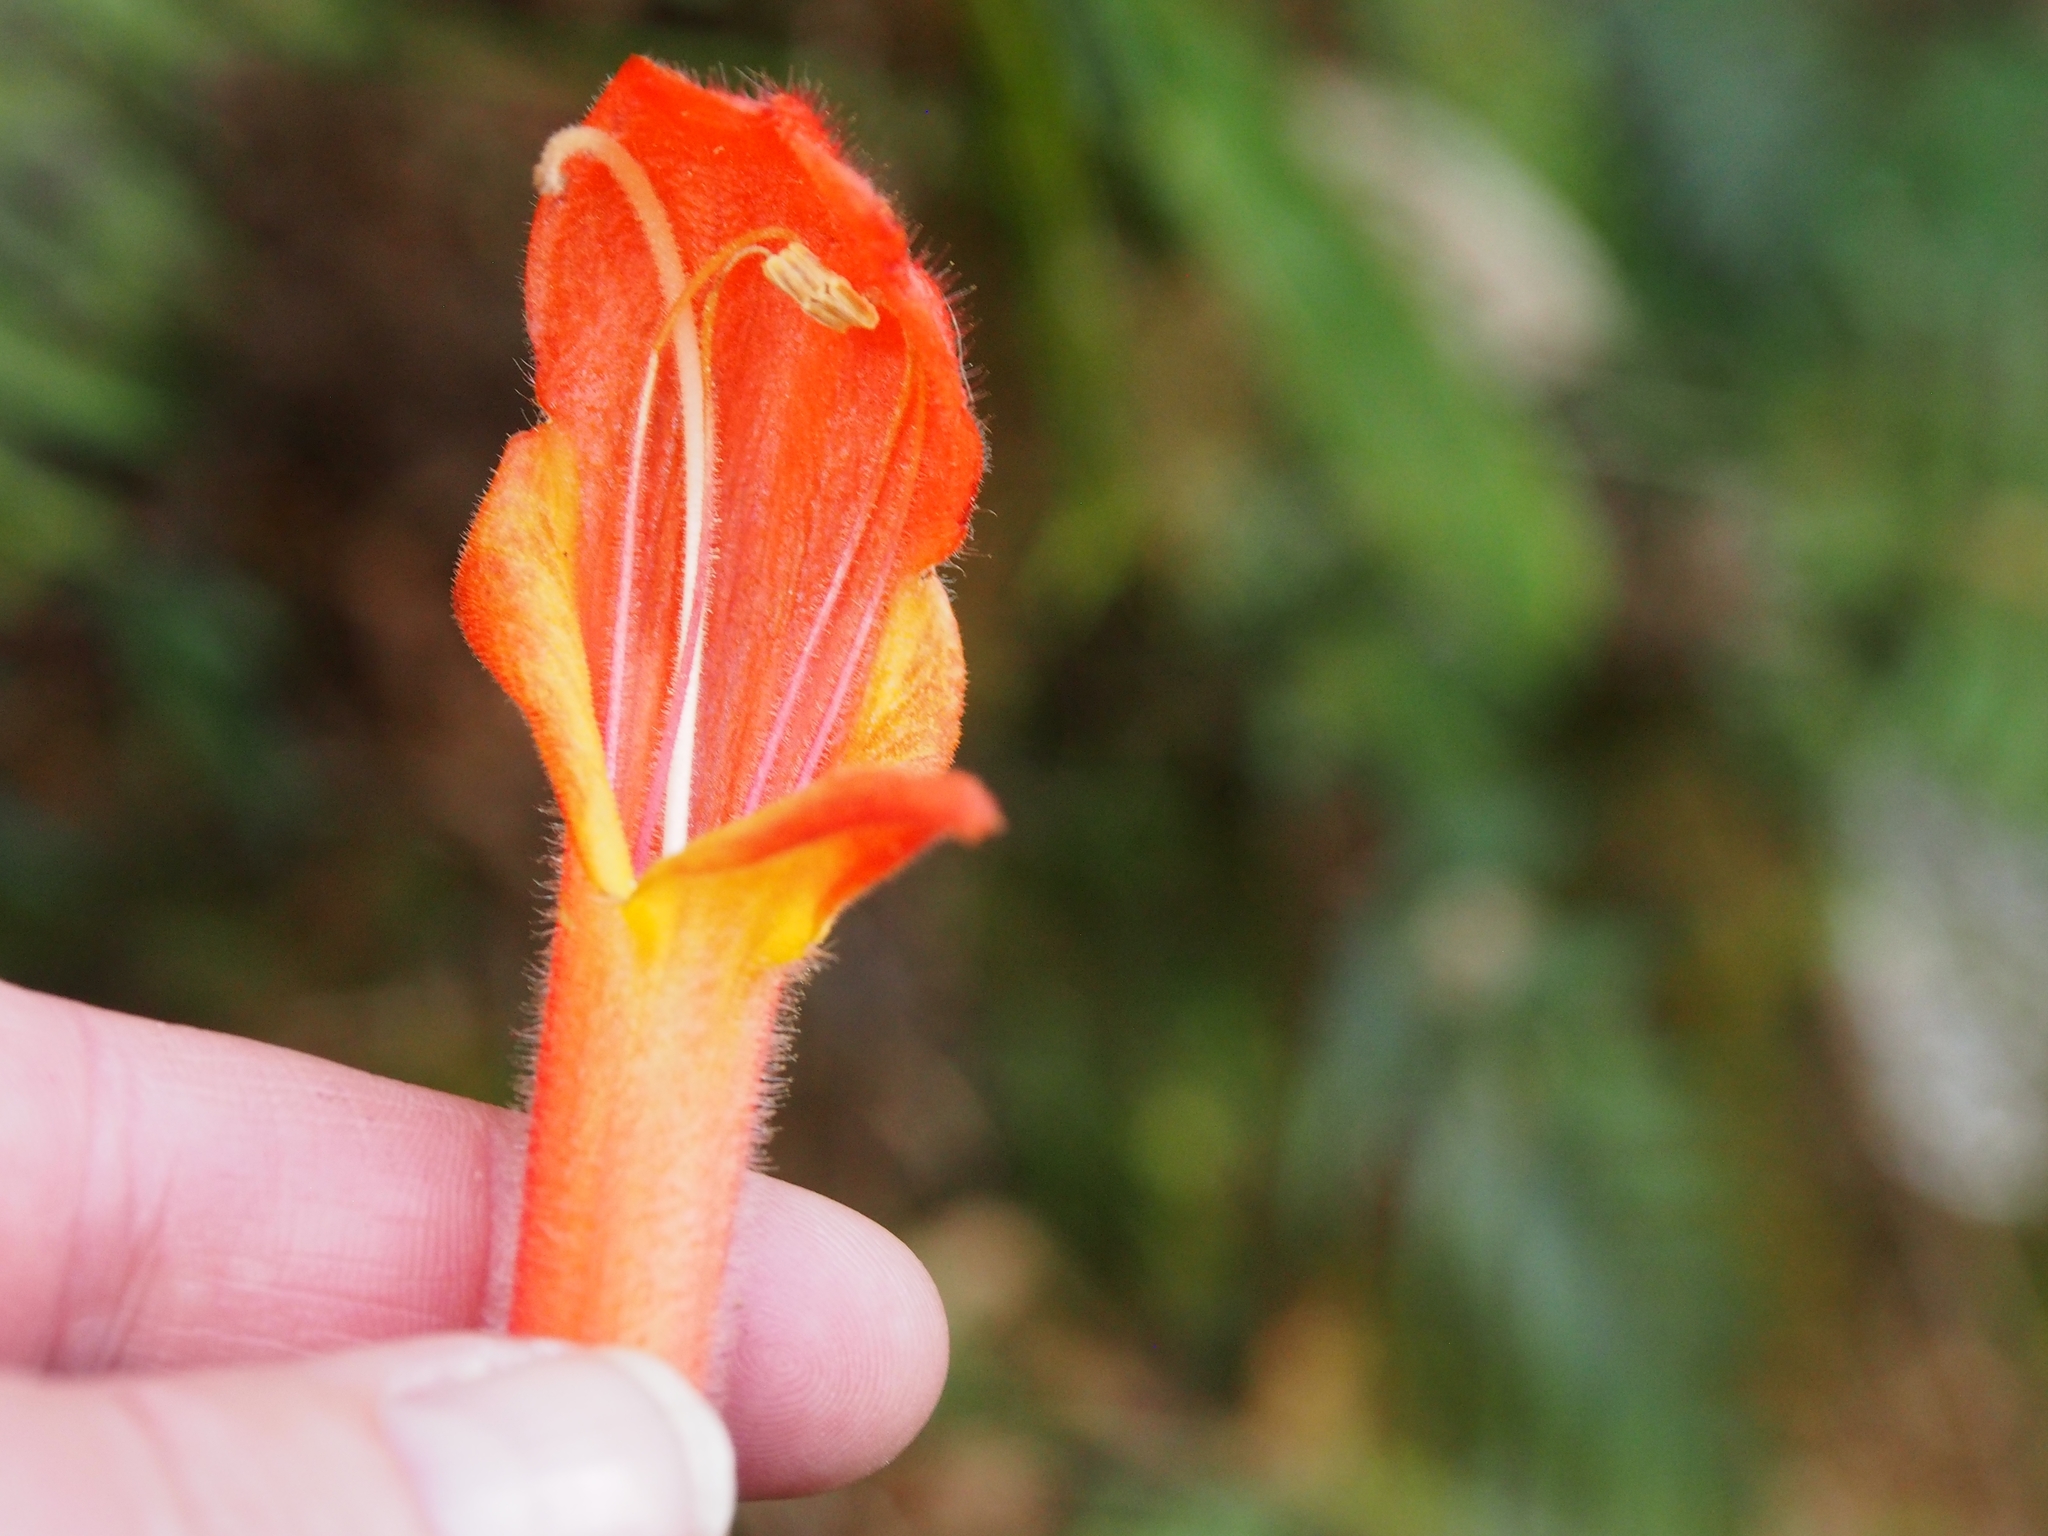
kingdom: Plantae
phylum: Tracheophyta
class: Magnoliopsida
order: Lamiales
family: Gesneriaceae
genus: Columnea
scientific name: Columnea magnifica
